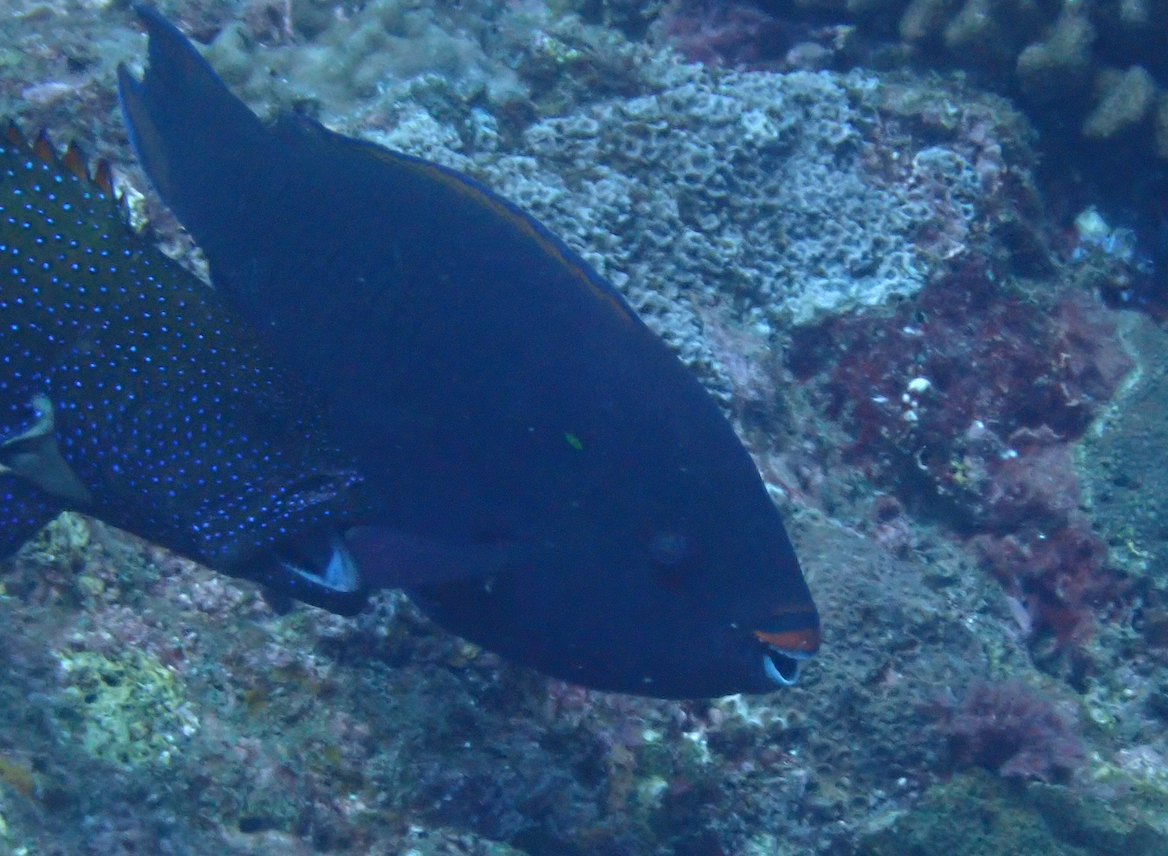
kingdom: Animalia
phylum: Chordata
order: Perciformes
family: Scaridae
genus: Scarus
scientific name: Scarus niger
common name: Dusky parrotfish
